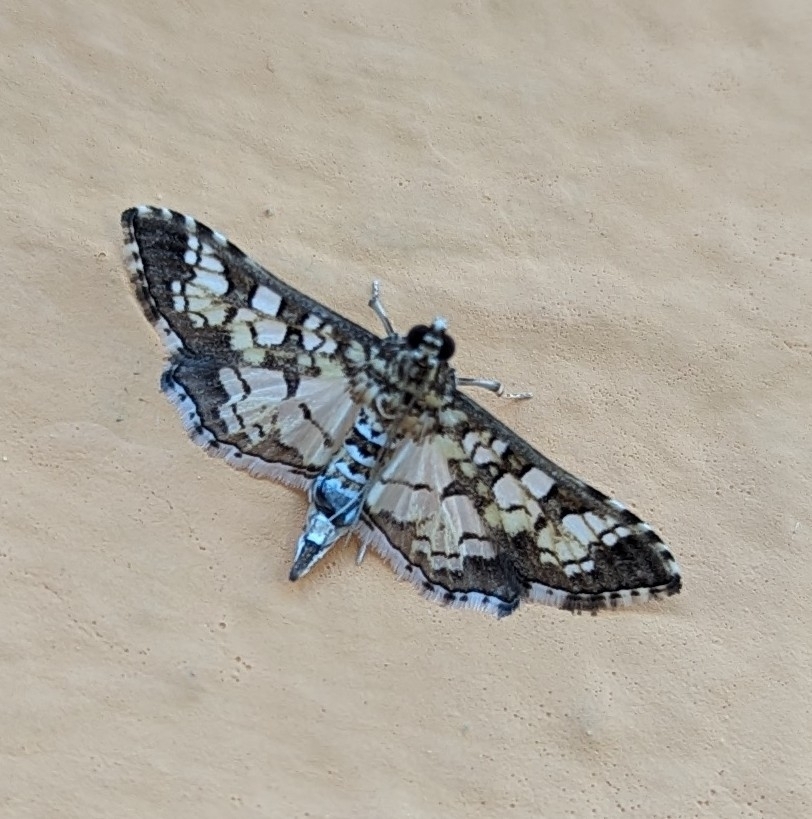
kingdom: Animalia
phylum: Arthropoda
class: Insecta
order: Lepidoptera
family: Crambidae
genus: Samea
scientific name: Samea ecclesialis
